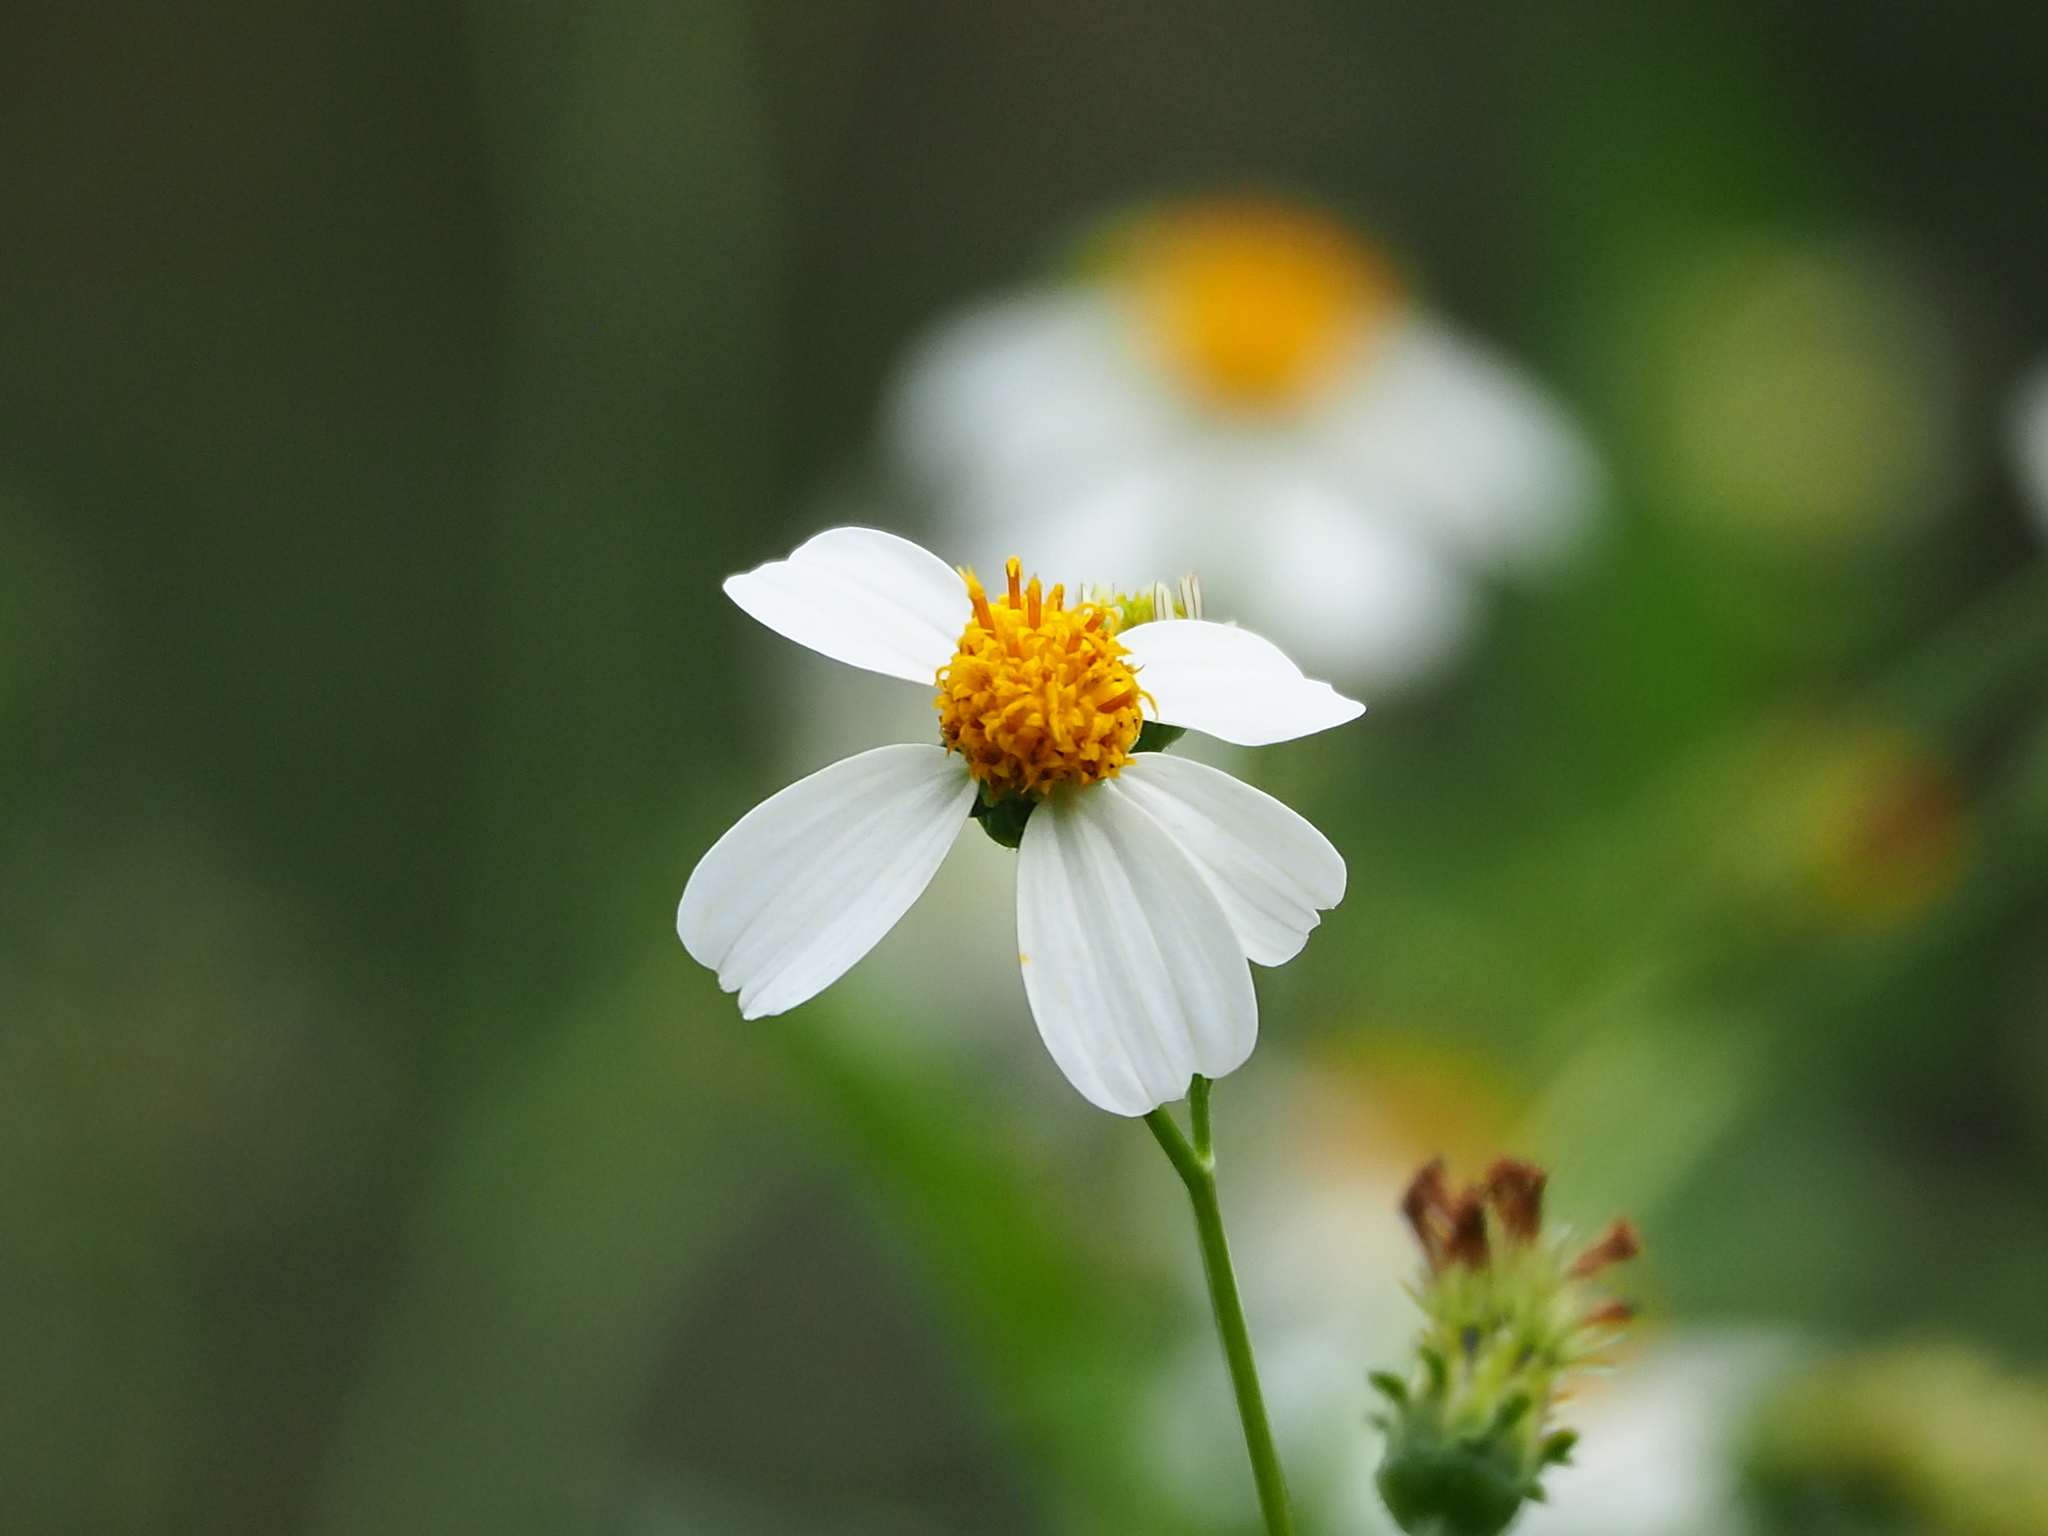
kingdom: Plantae
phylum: Tracheophyta
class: Magnoliopsida
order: Asterales
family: Asteraceae
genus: Bidens
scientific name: Bidens alba
